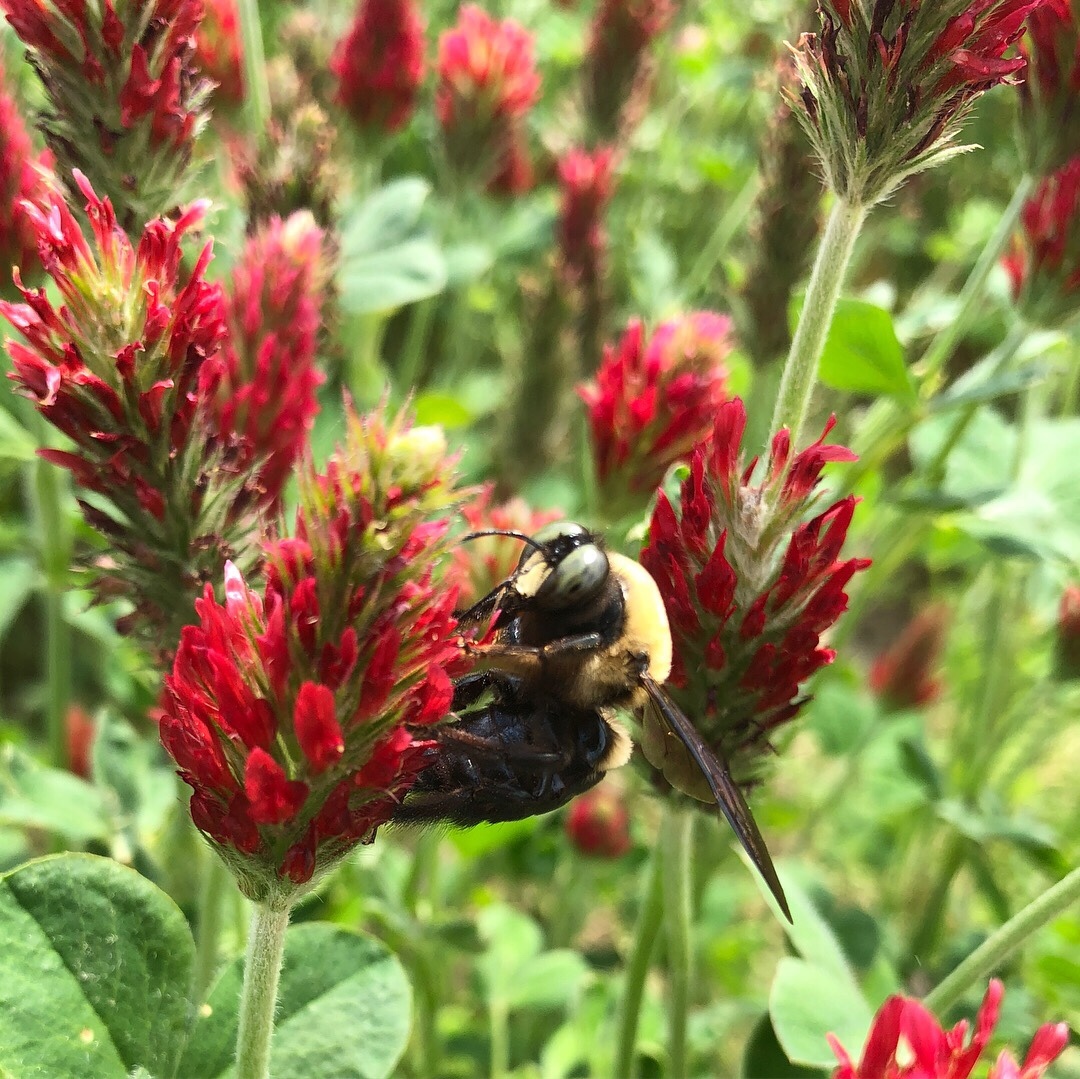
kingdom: Animalia
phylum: Arthropoda
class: Insecta
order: Hymenoptera
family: Apidae
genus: Xylocopa
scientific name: Xylocopa virginica
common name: Carpenter bee
